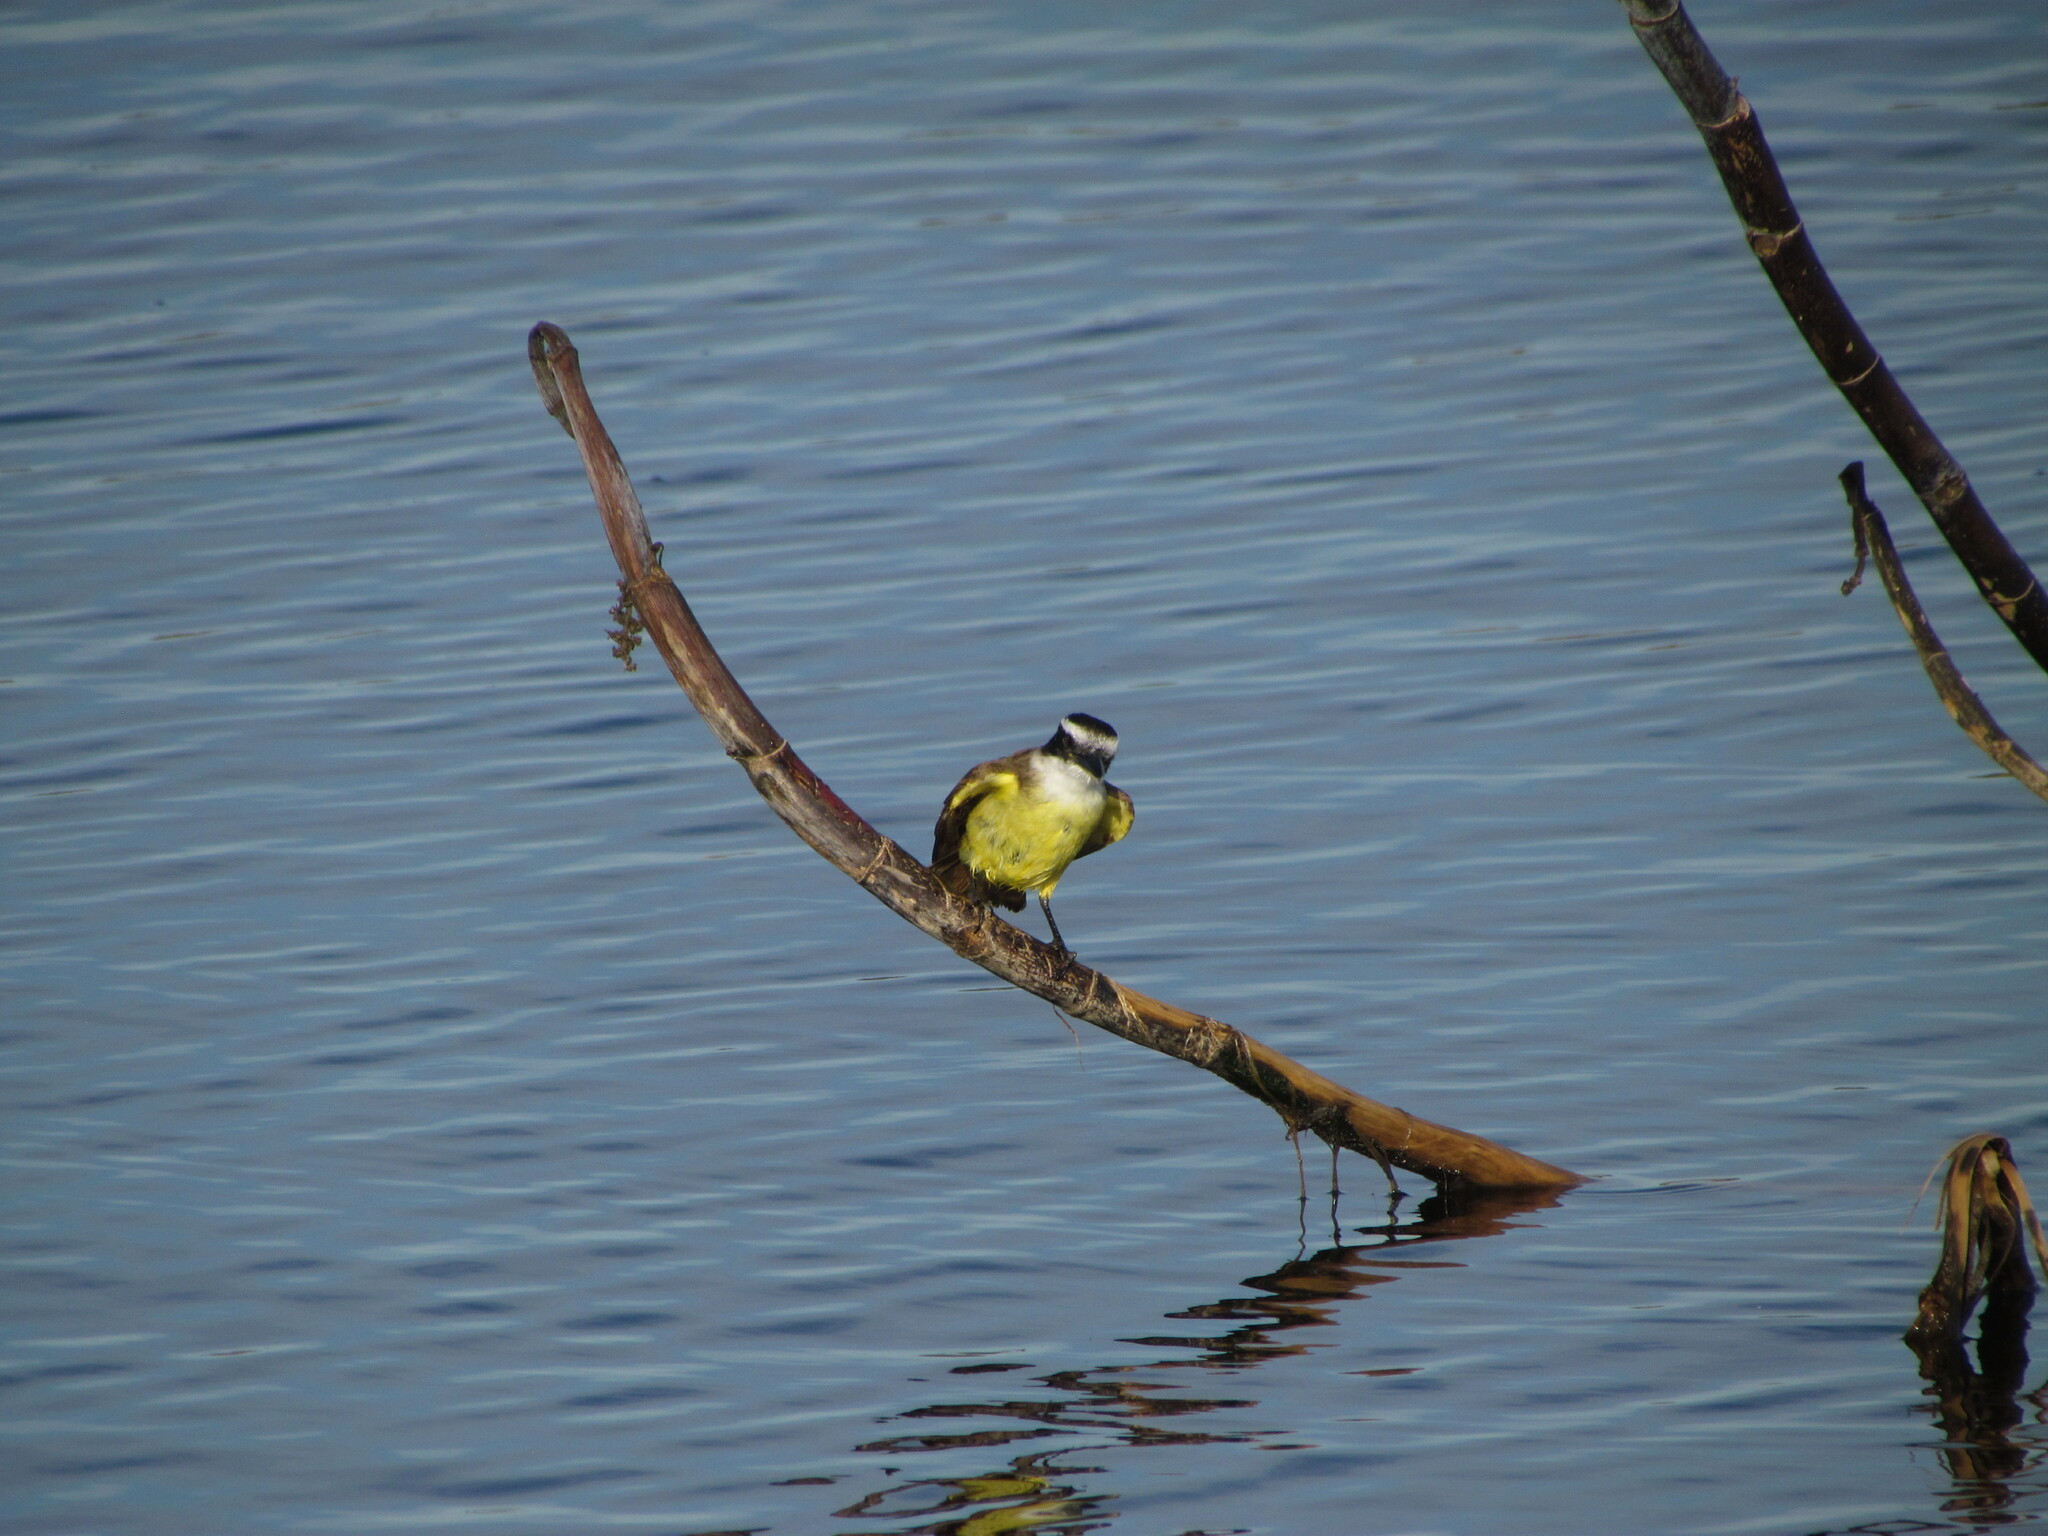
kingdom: Animalia
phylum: Chordata
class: Aves
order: Passeriformes
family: Tyrannidae
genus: Pitangus
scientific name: Pitangus sulphuratus
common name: Great kiskadee
